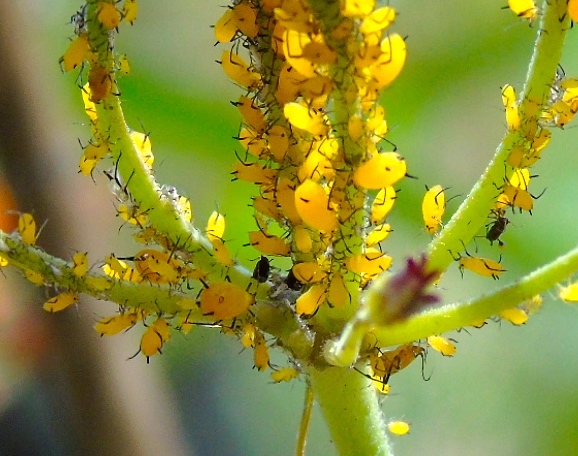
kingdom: Animalia
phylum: Arthropoda
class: Insecta
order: Hemiptera
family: Aphididae
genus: Aphis
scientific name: Aphis nerii
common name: Oleander aphid
